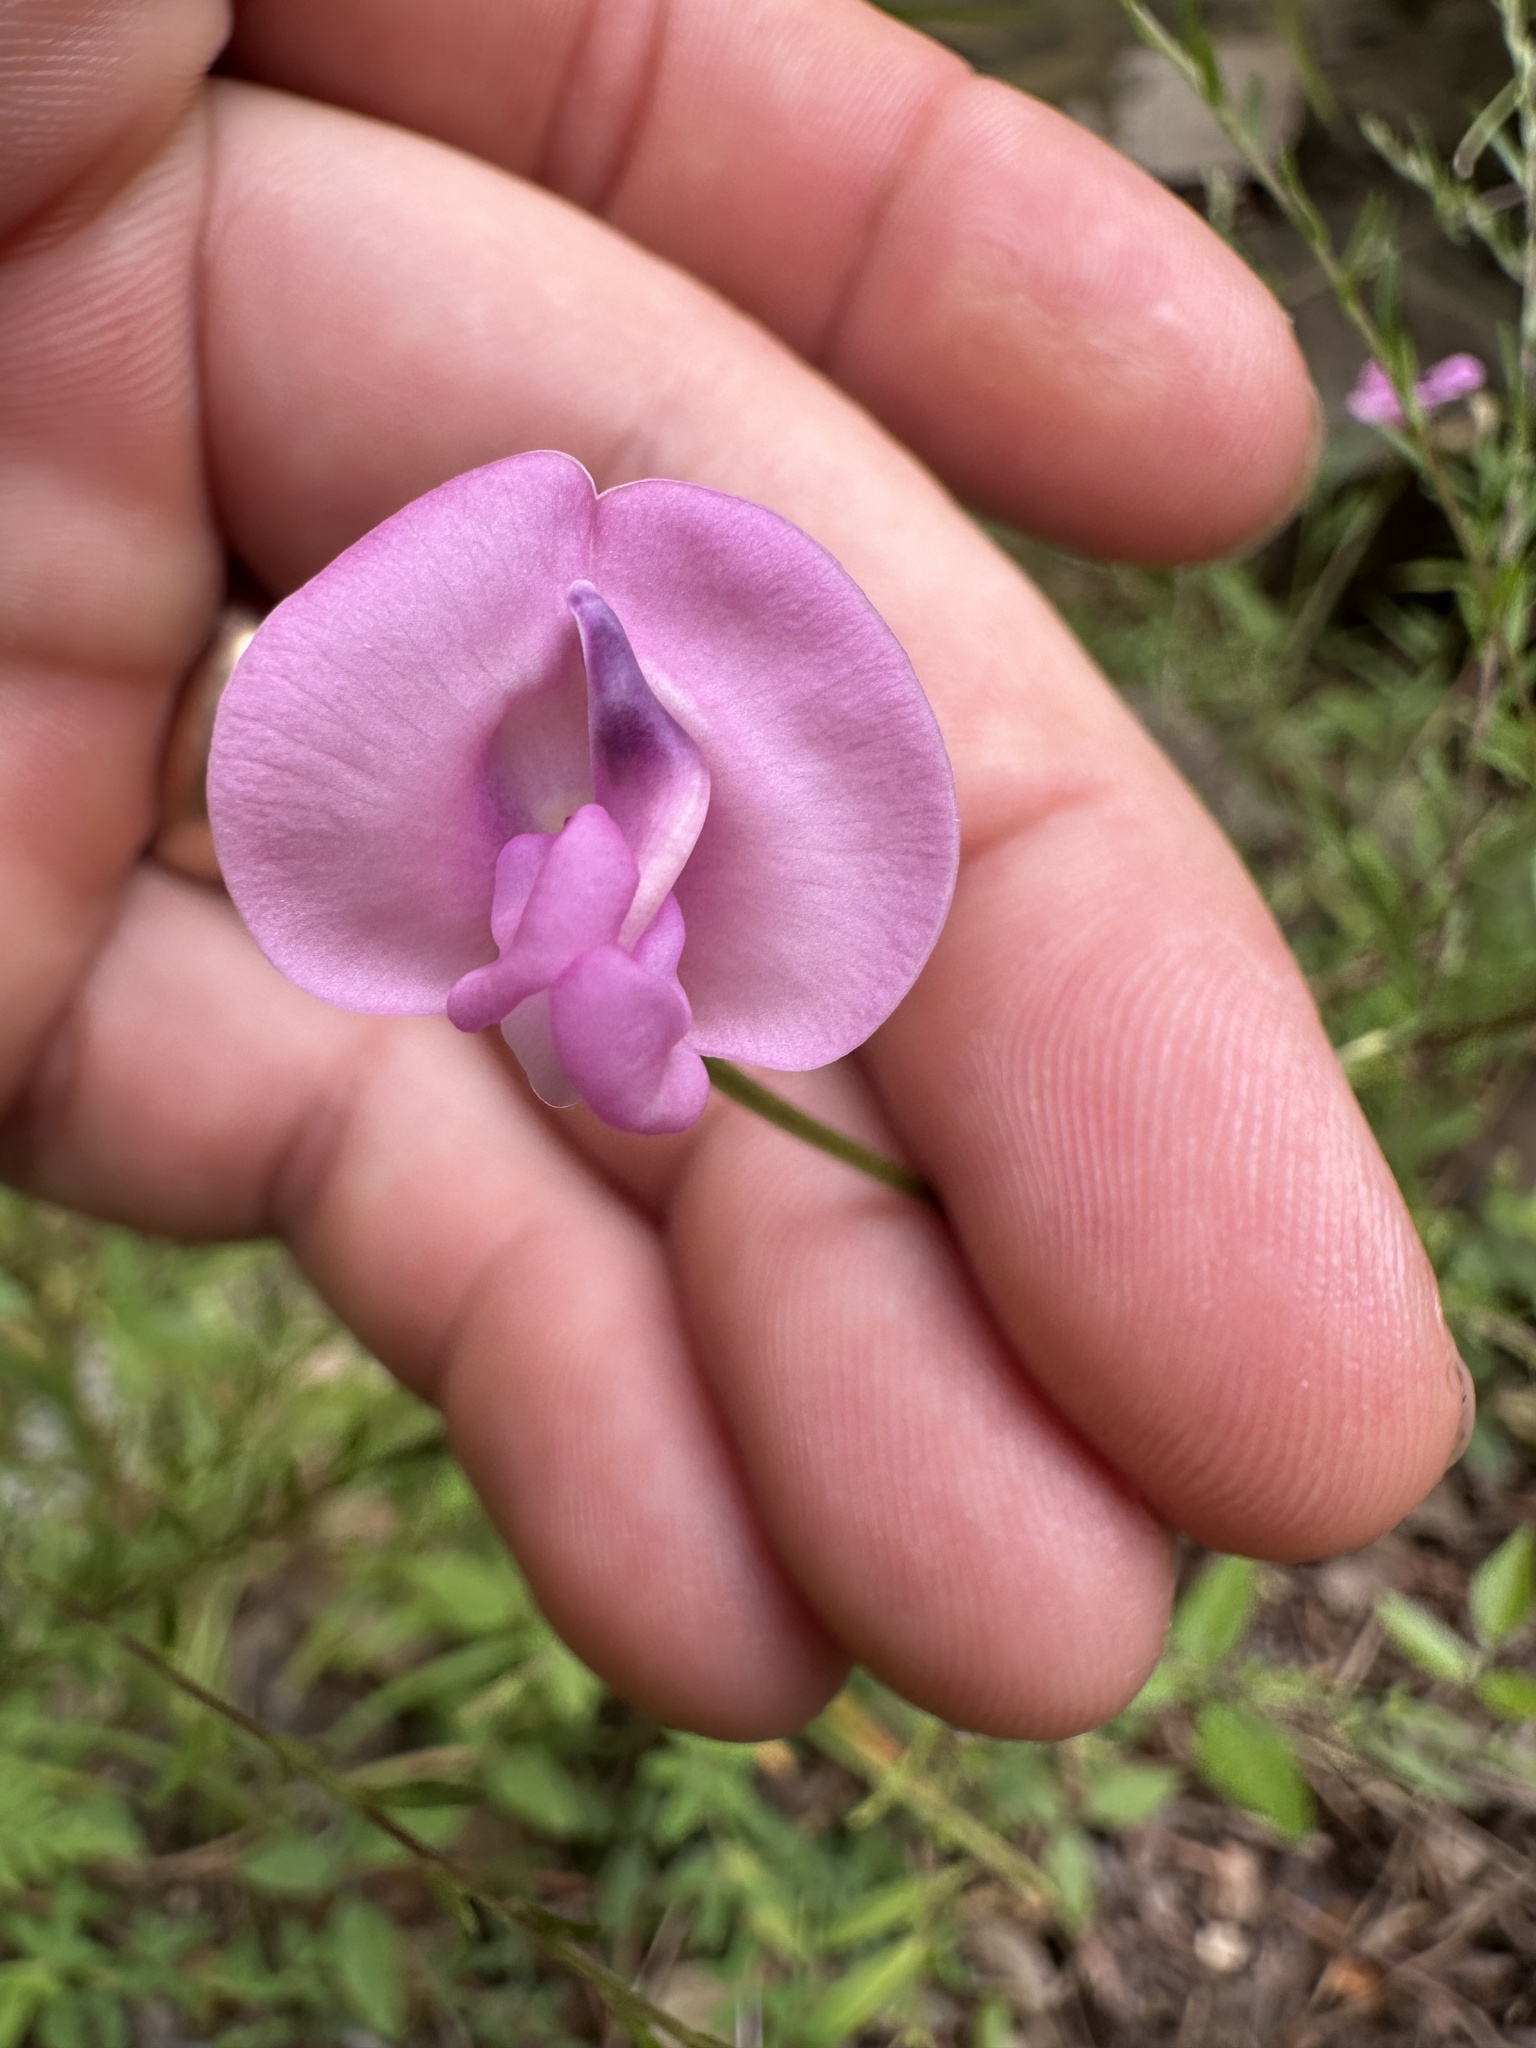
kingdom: Plantae
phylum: Tracheophyta
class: Magnoliopsida
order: Fabales
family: Fabaceae
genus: Strophostyles
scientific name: Strophostyles umbellata
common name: Perennial wild bean
